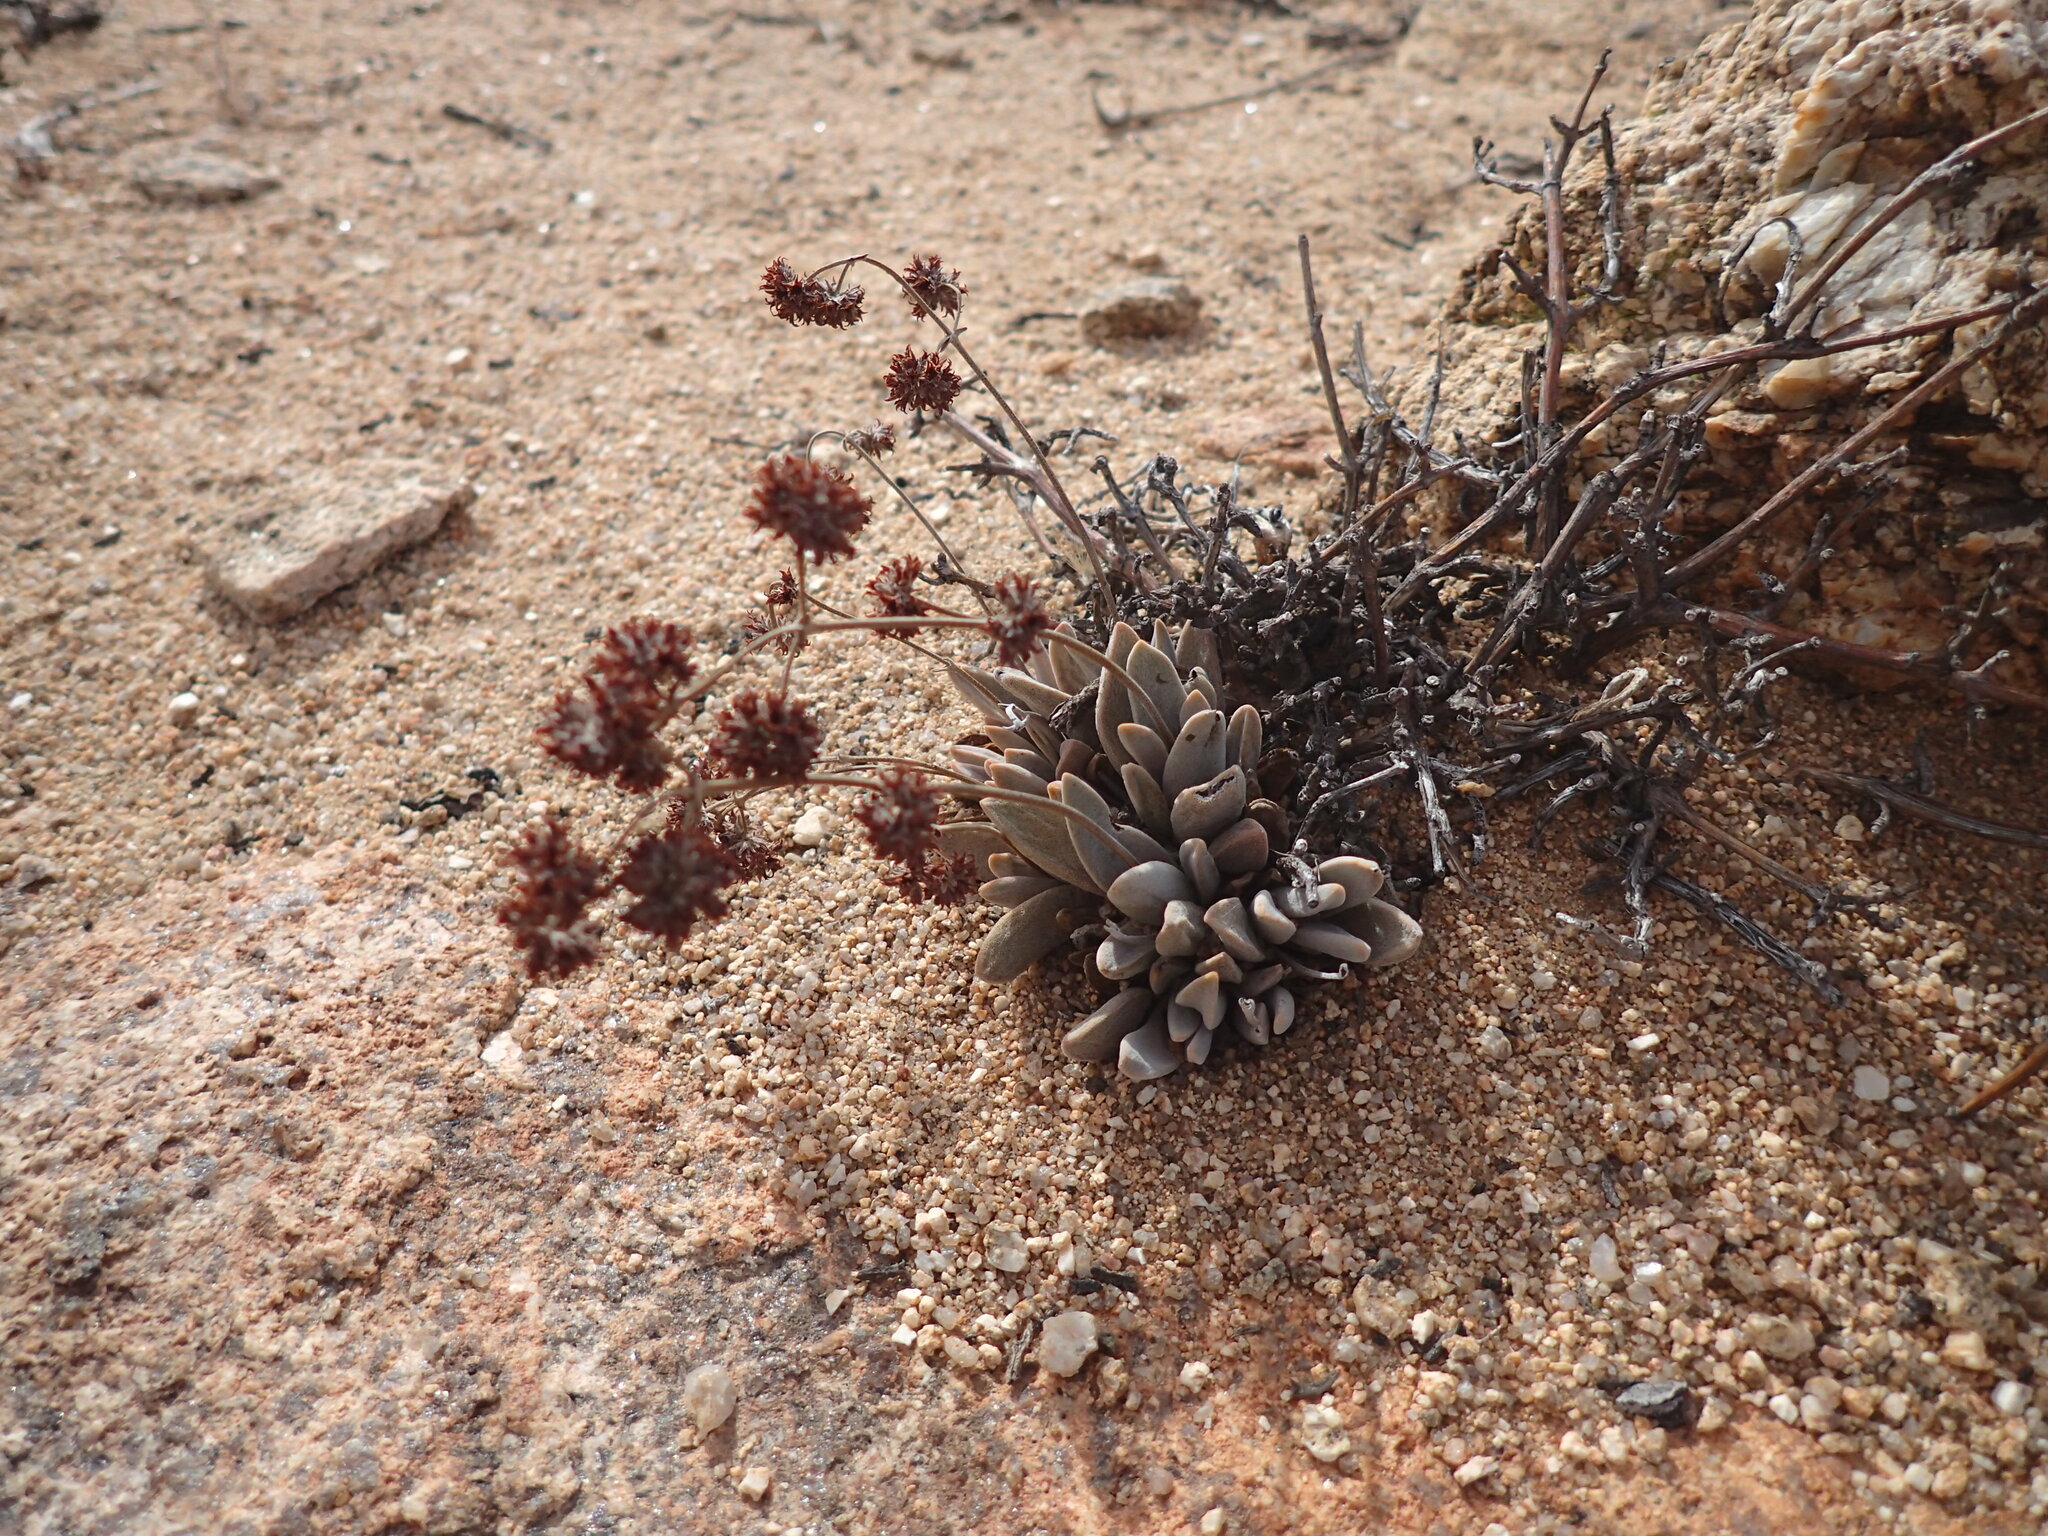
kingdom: Plantae
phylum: Tracheophyta
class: Magnoliopsida
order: Saxifragales
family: Crassulaceae
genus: Crassula
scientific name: Crassula namaquensis
